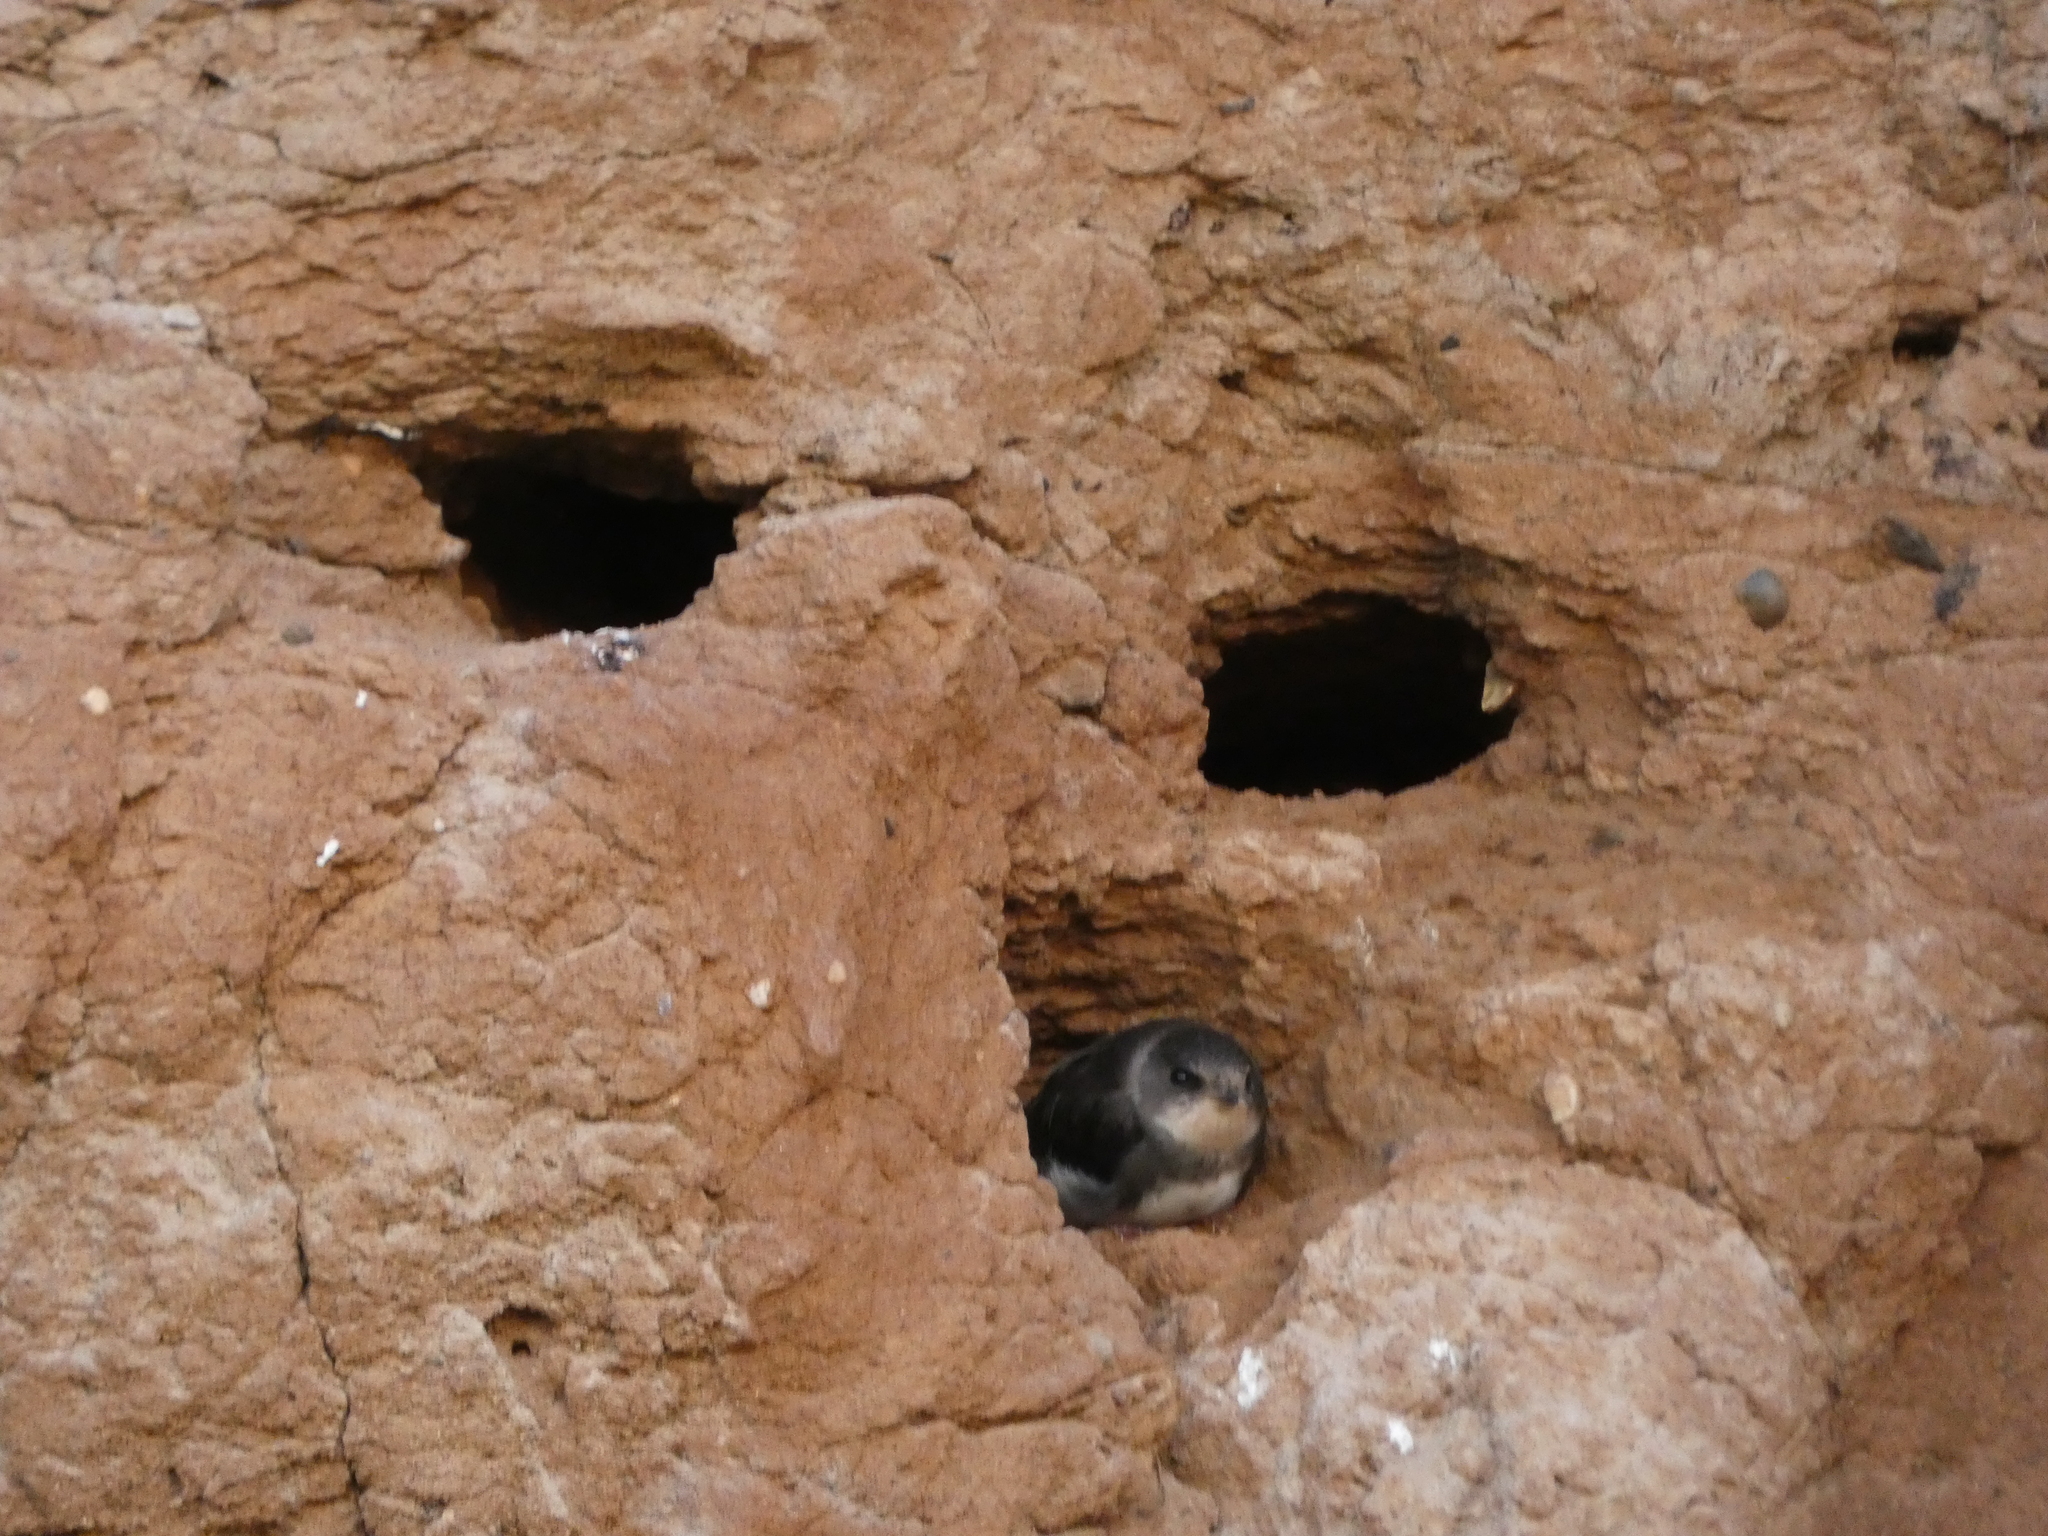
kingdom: Animalia
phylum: Chordata
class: Aves
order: Passeriformes
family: Hirundinidae
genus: Riparia
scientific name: Riparia riparia
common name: Sand martin
